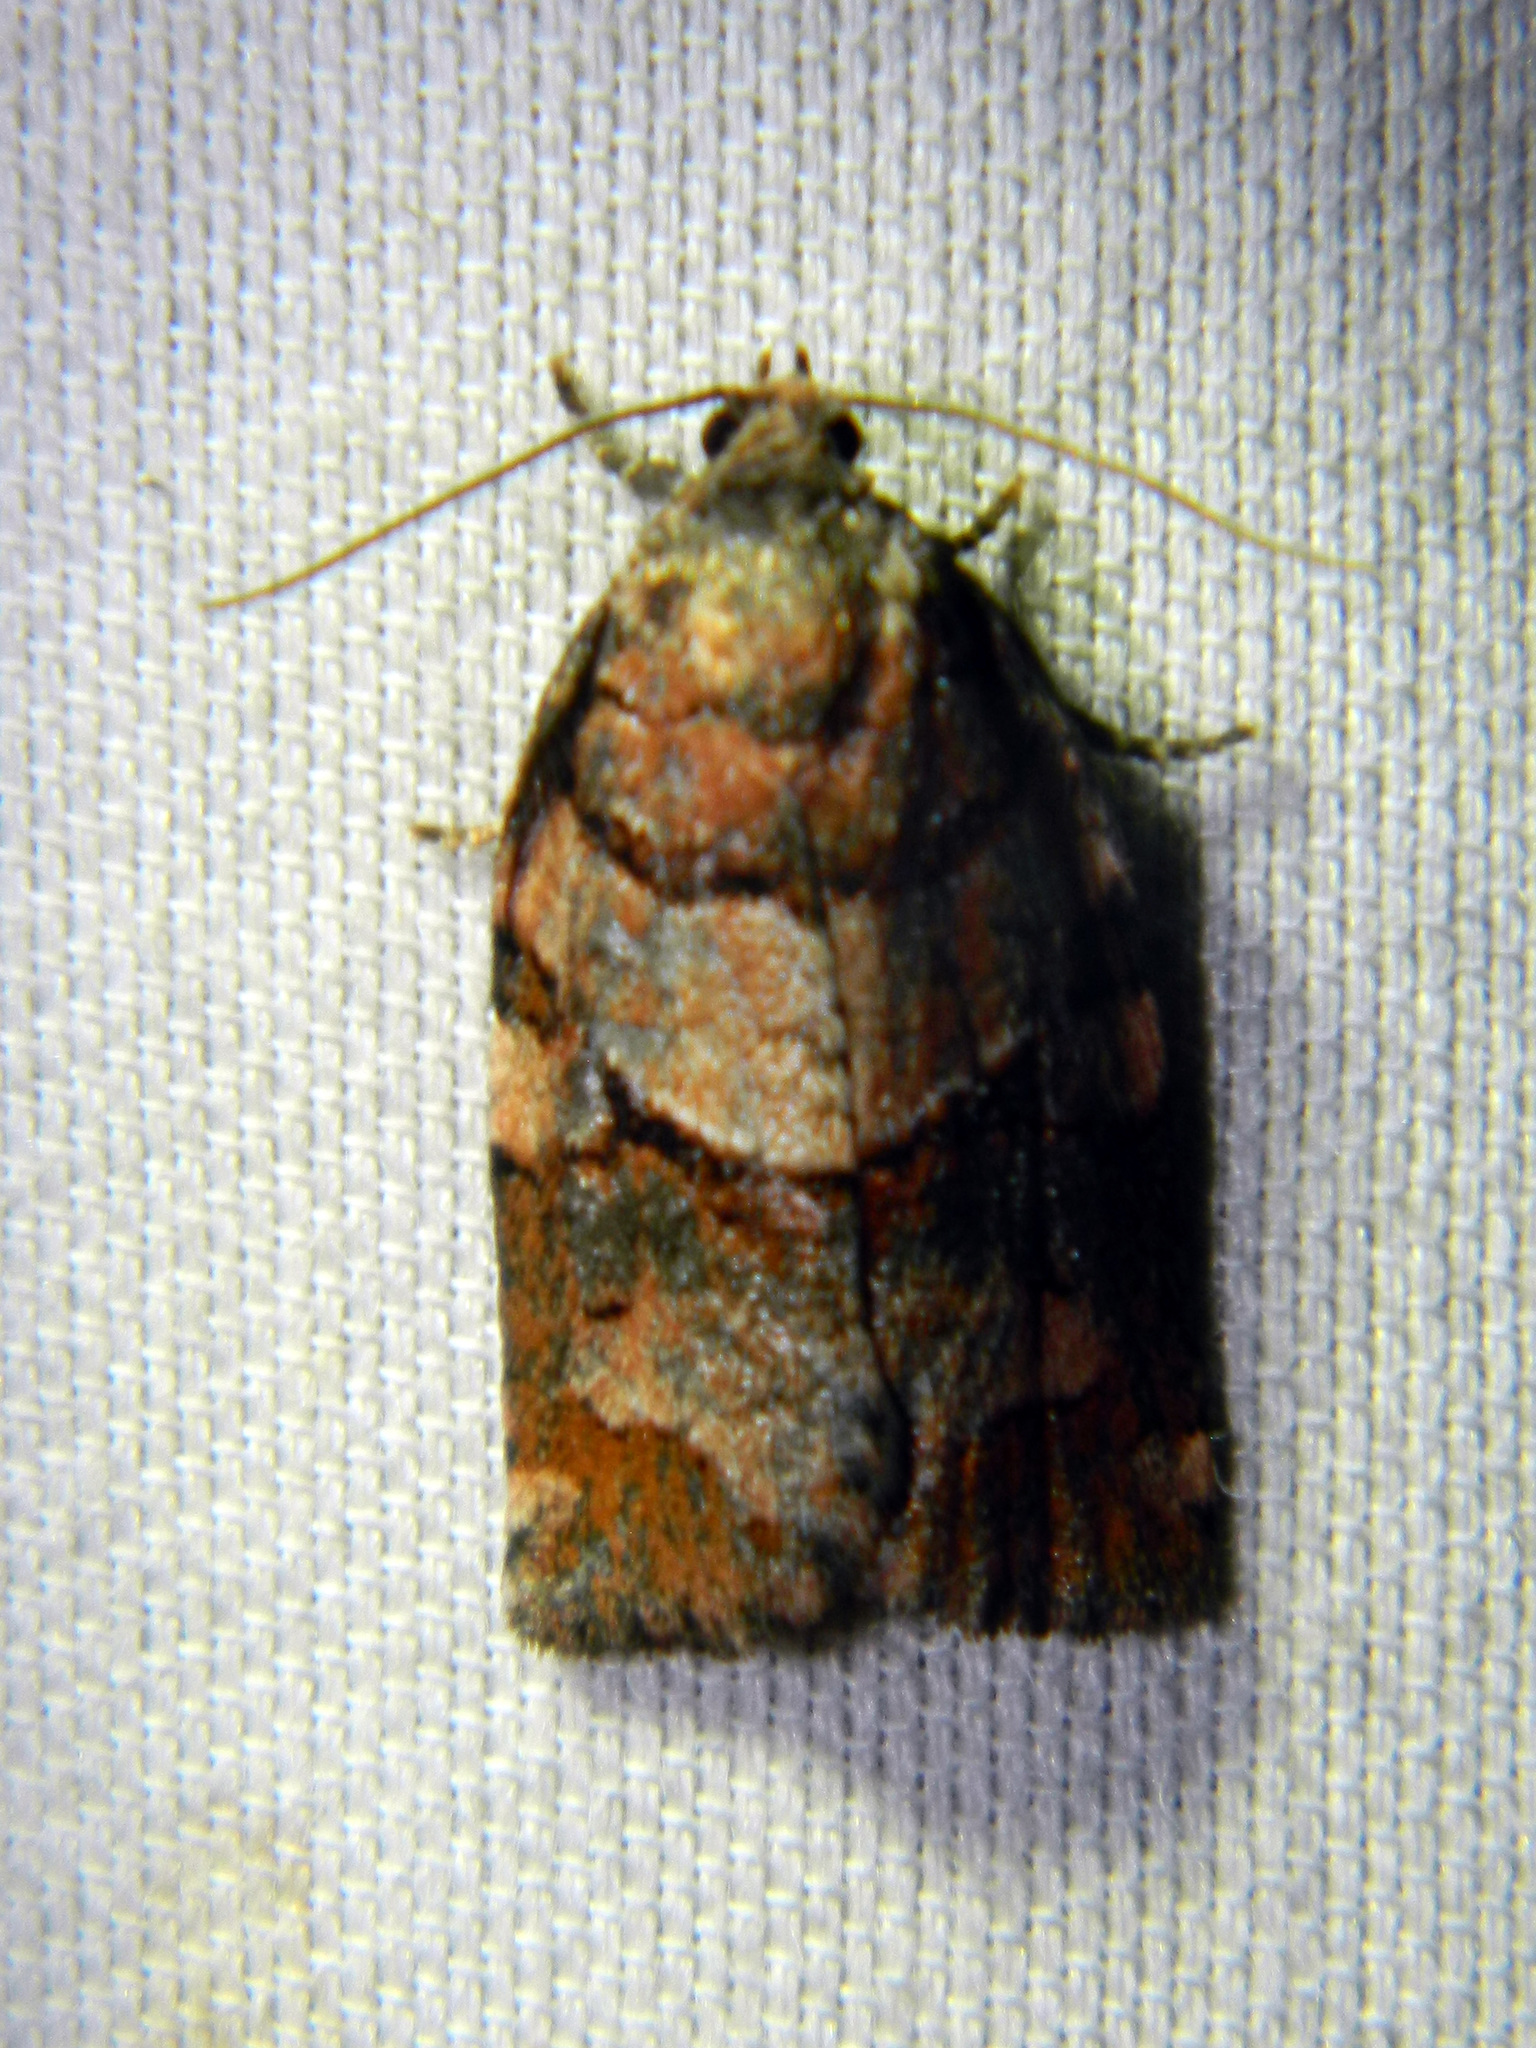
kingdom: Animalia
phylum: Arthropoda
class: Insecta
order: Lepidoptera
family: Tortricidae
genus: Archips
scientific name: Archips alberta
